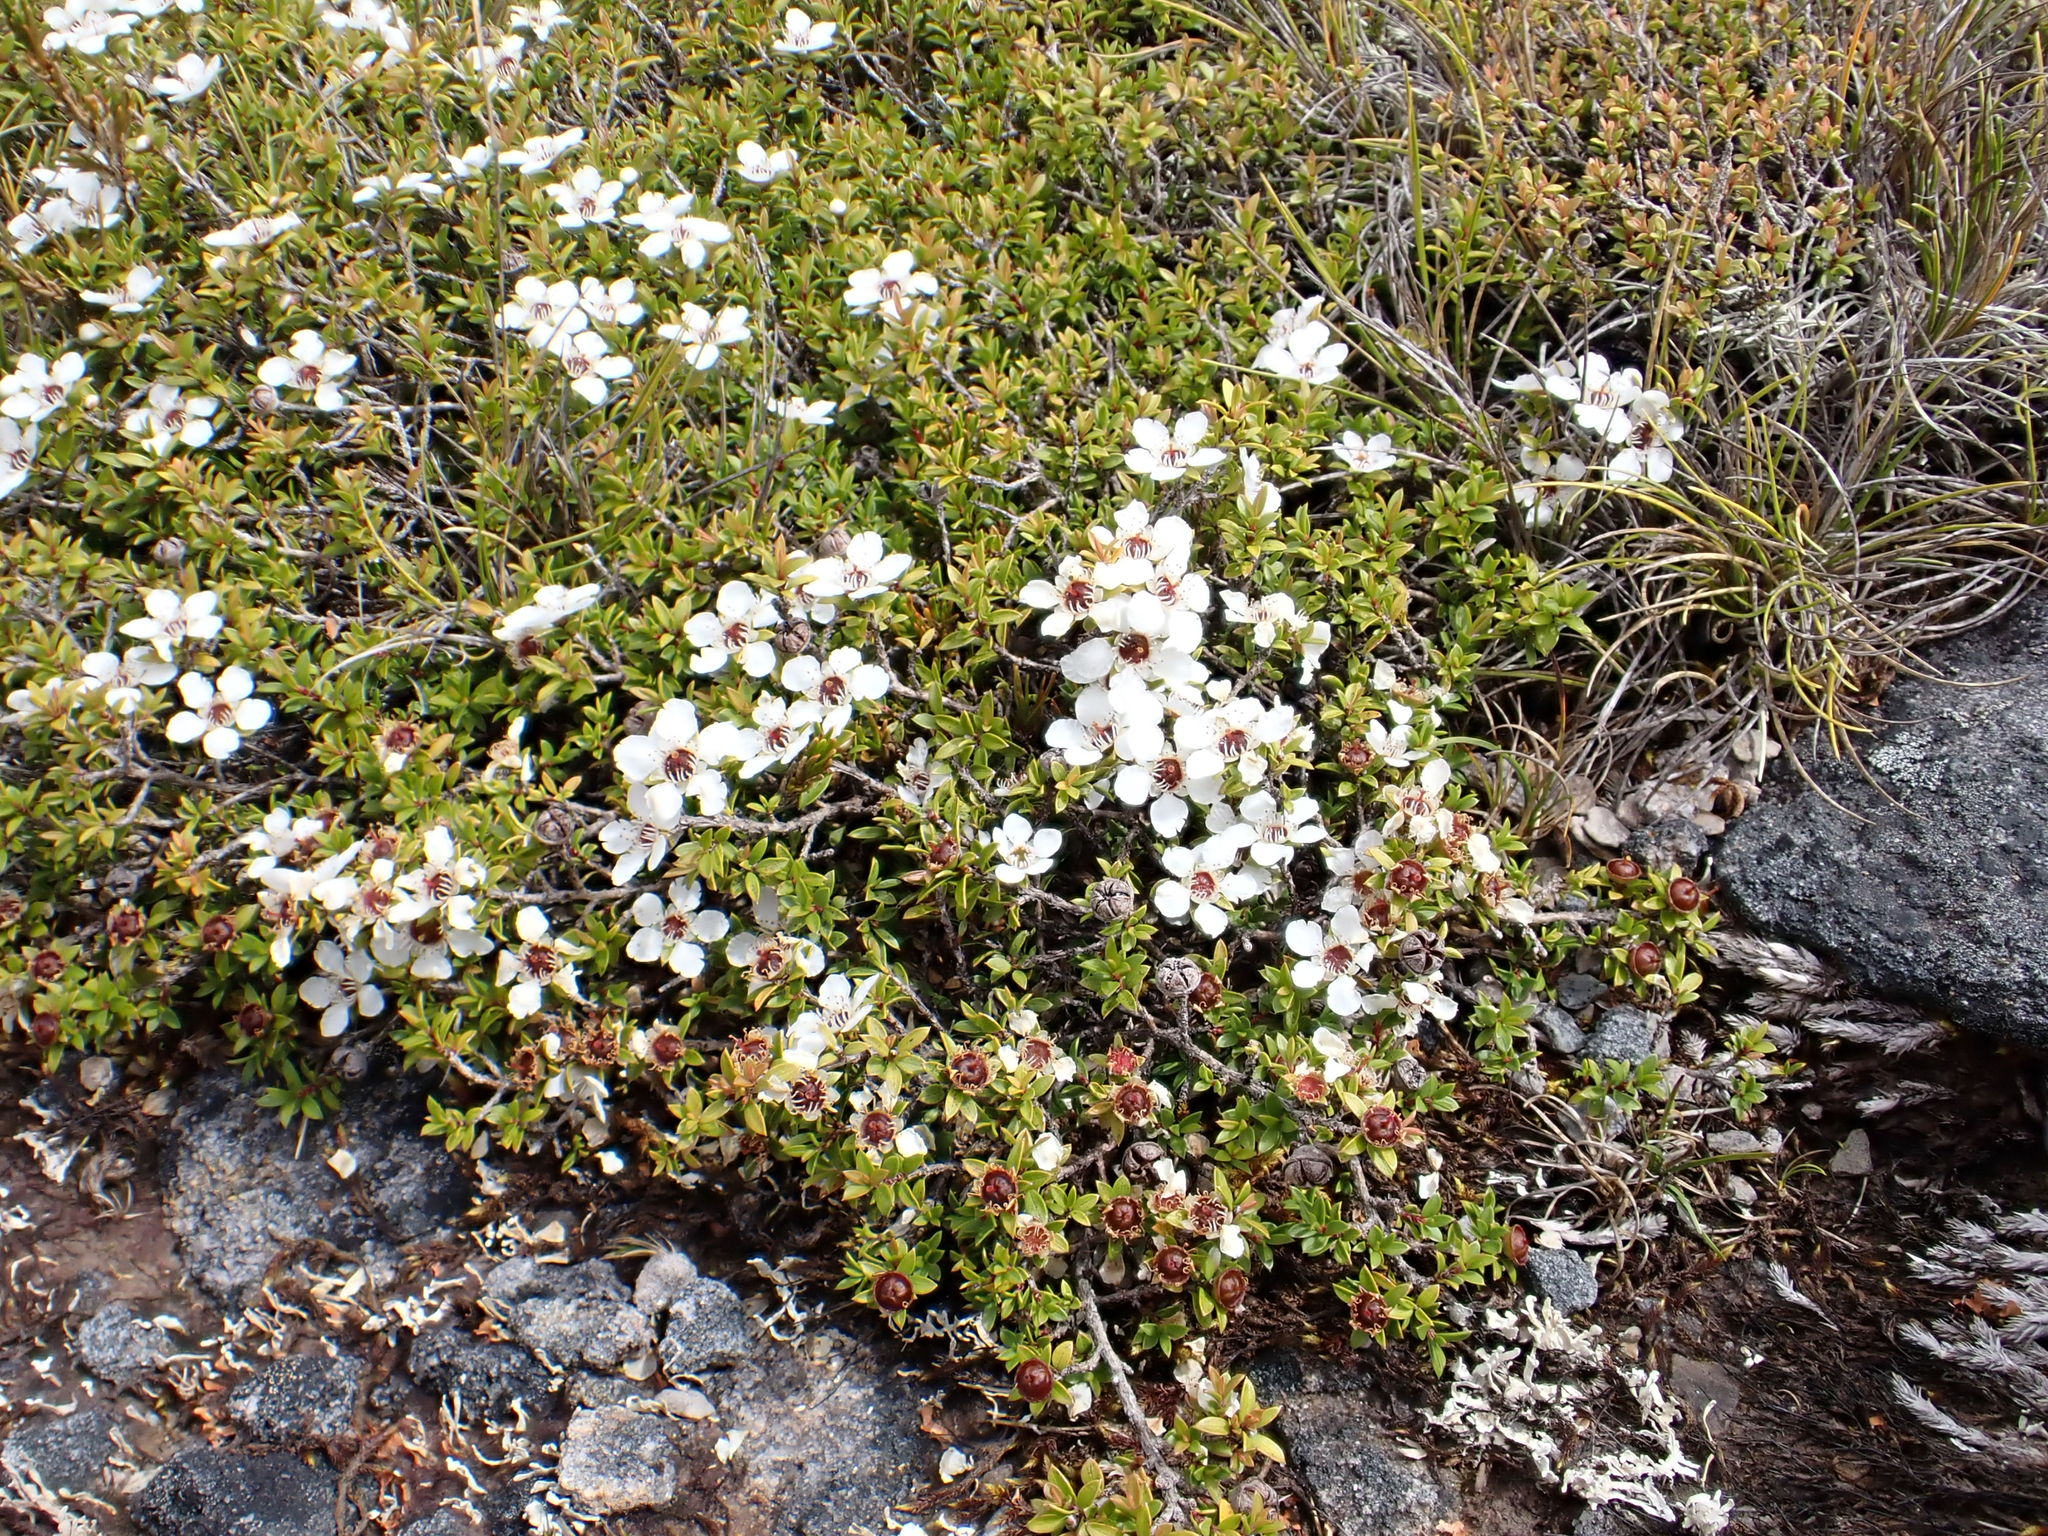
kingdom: Plantae
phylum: Tracheophyta
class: Magnoliopsida
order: Myrtales
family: Myrtaceae
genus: Leptospermum
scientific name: Leptospermum scoparium
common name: Broom tea-tree
